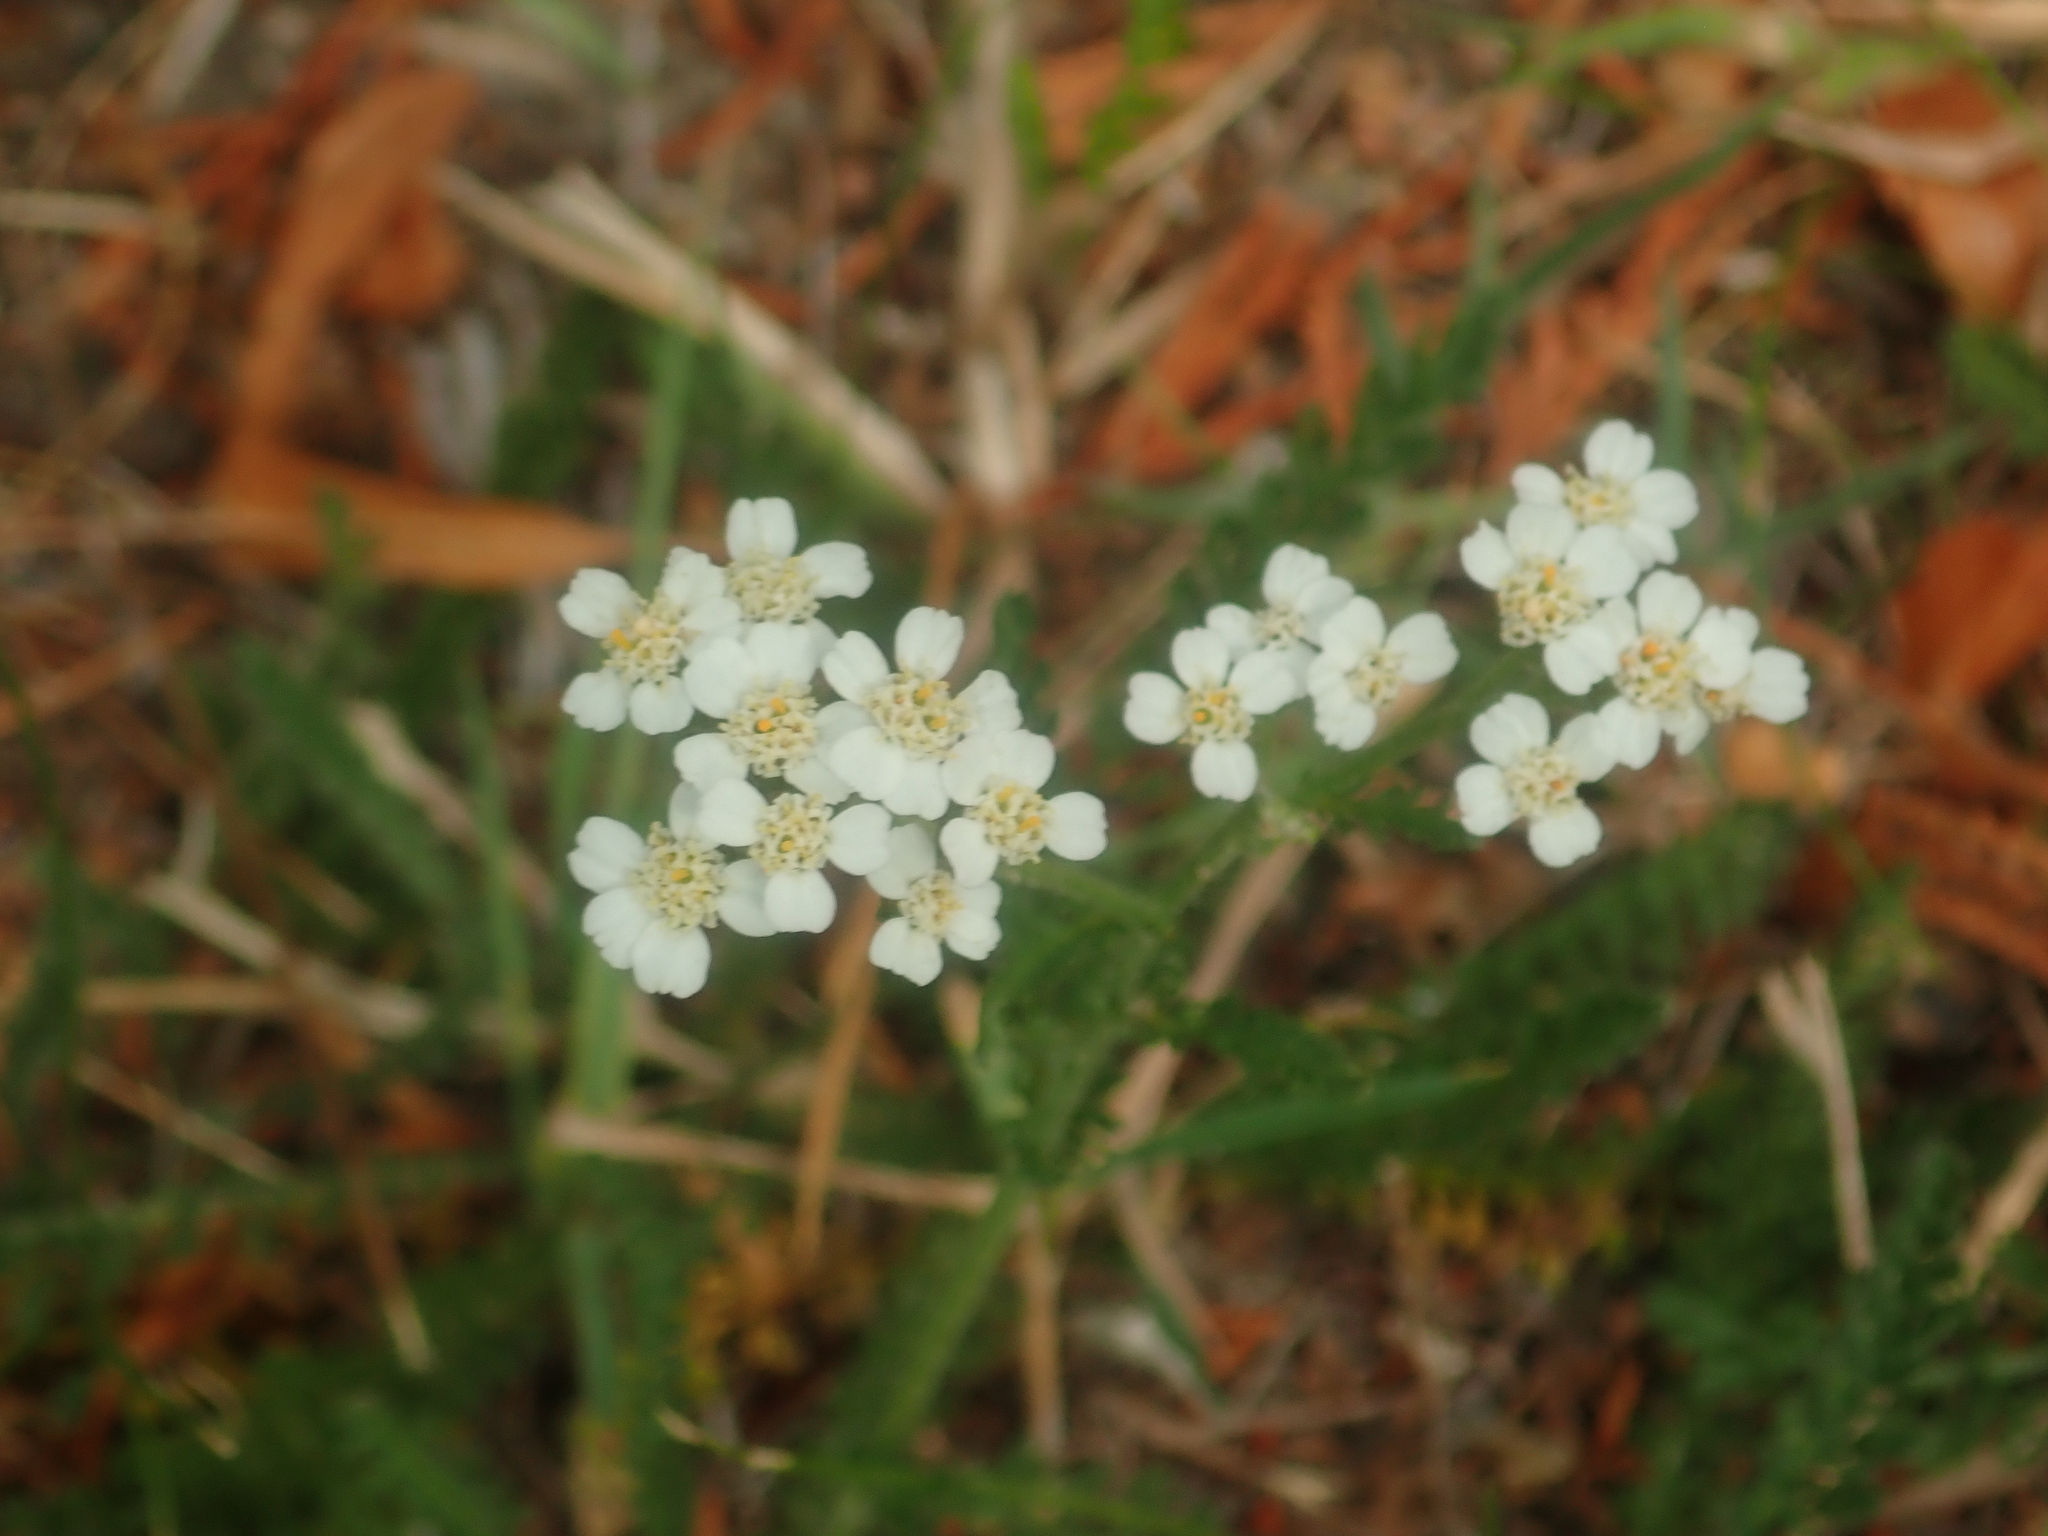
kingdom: Plantae
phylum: Tracheophyta
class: Magnoliopsida
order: Asterales
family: Asteraceae
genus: Achillea
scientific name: Achillea millefolium
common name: Yarrow
